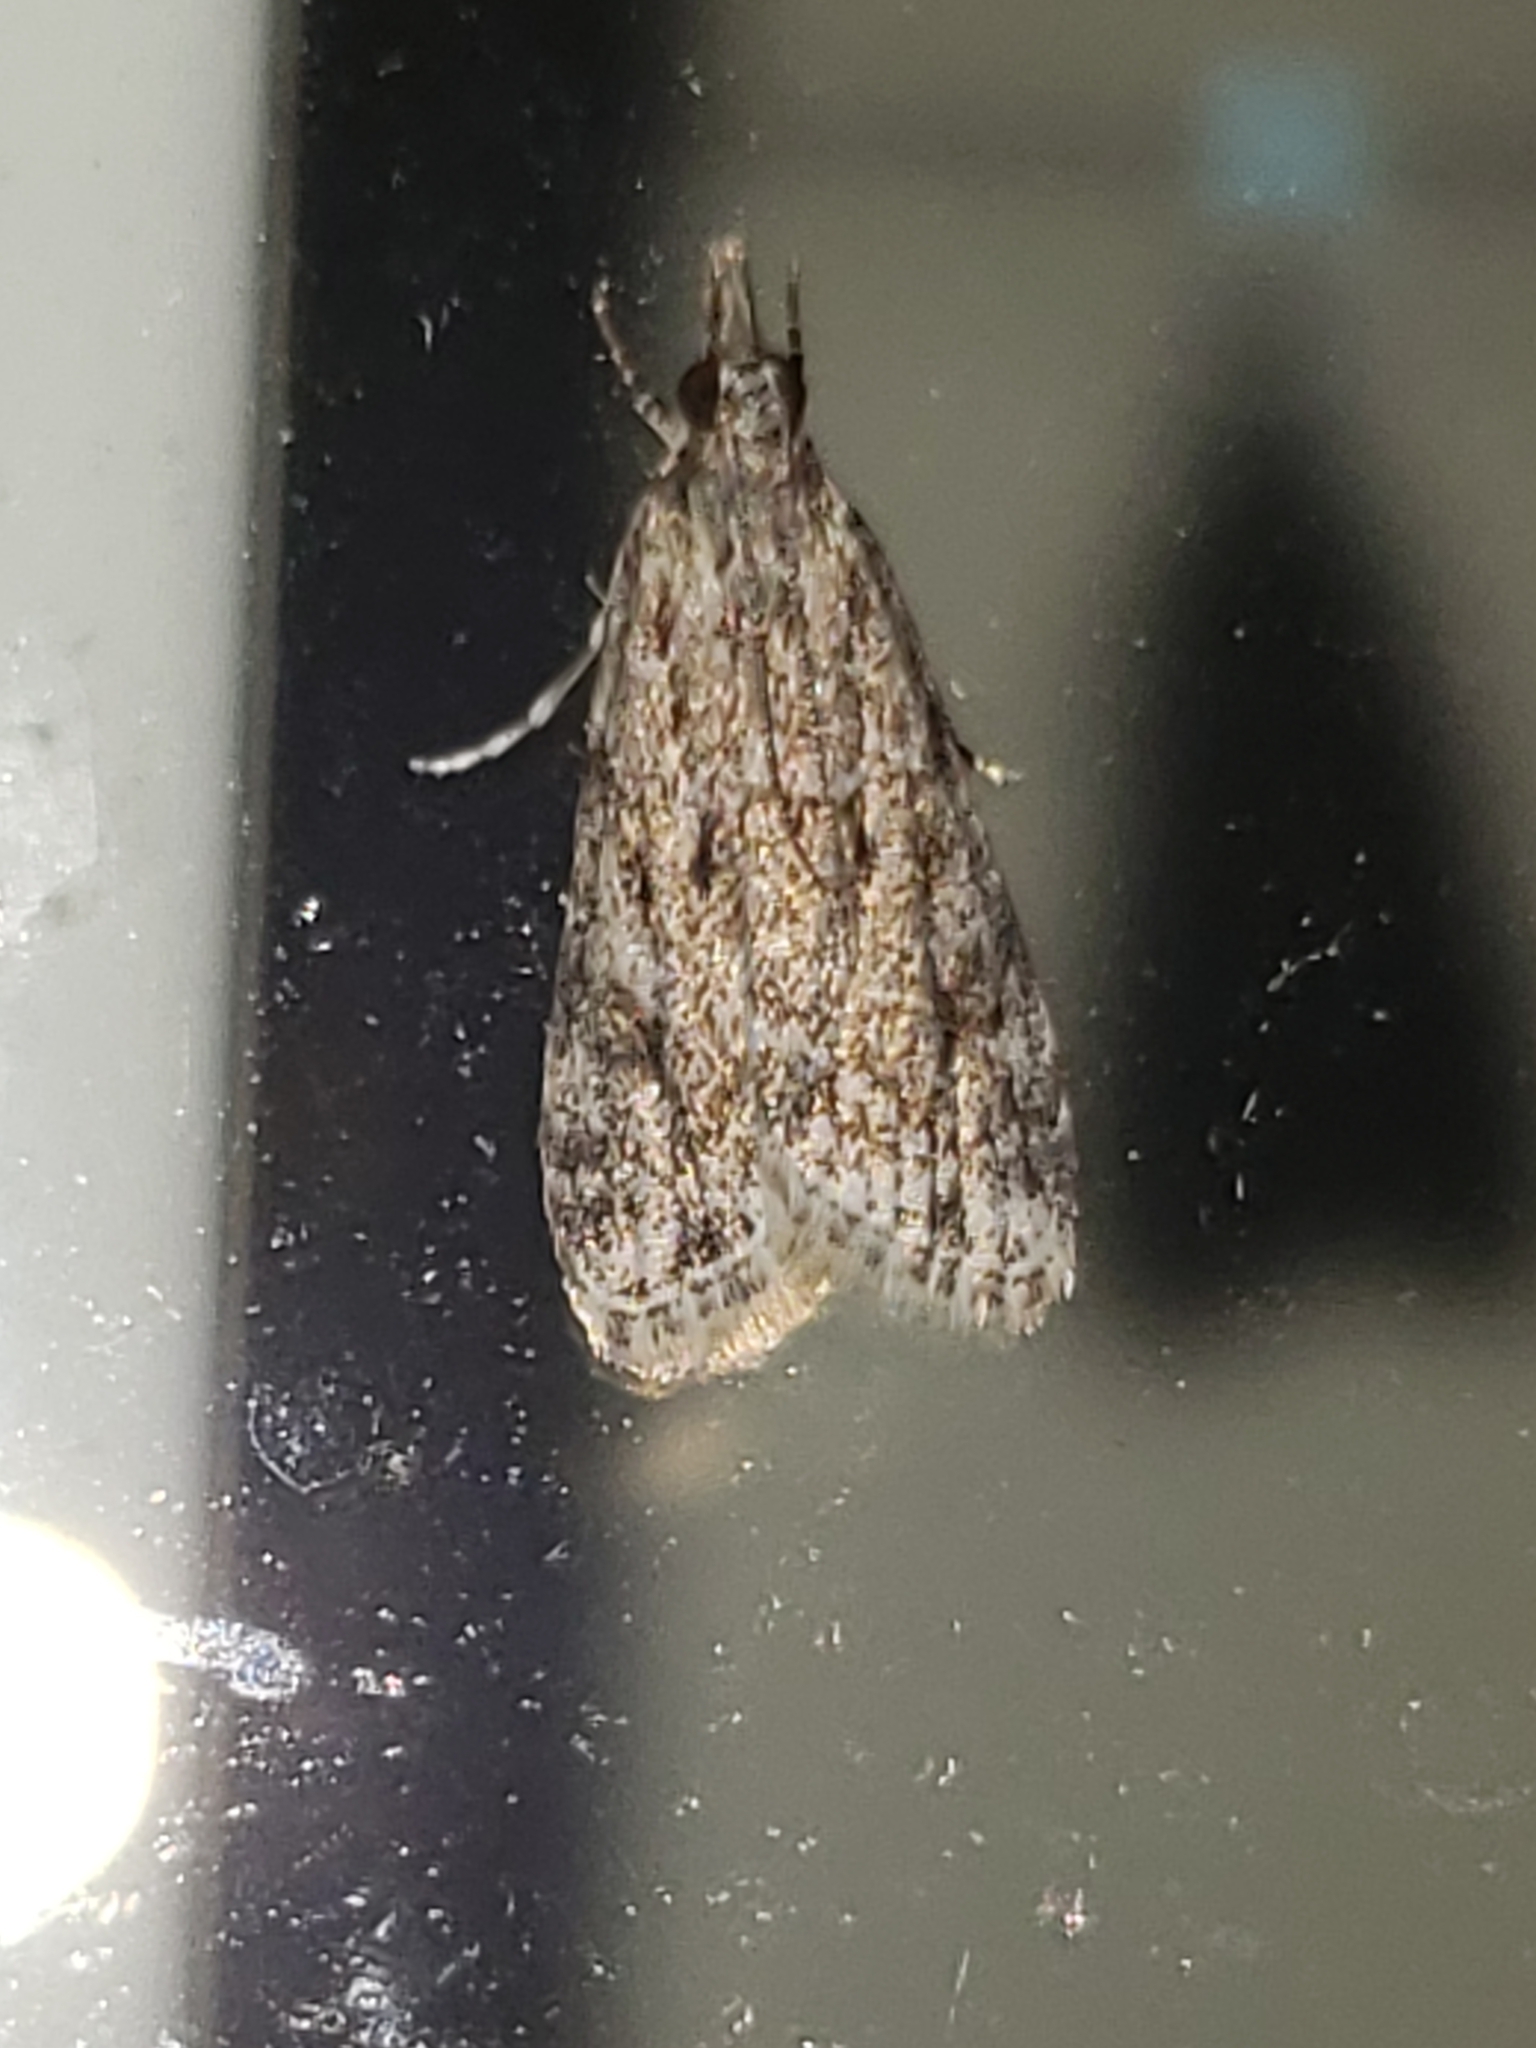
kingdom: Animalia
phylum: Arthropoda
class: Insecta
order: Lepidoptera
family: Crambidae
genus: Eudonia
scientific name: Eudonia heterosalis
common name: Mcdunnough's eudonia
